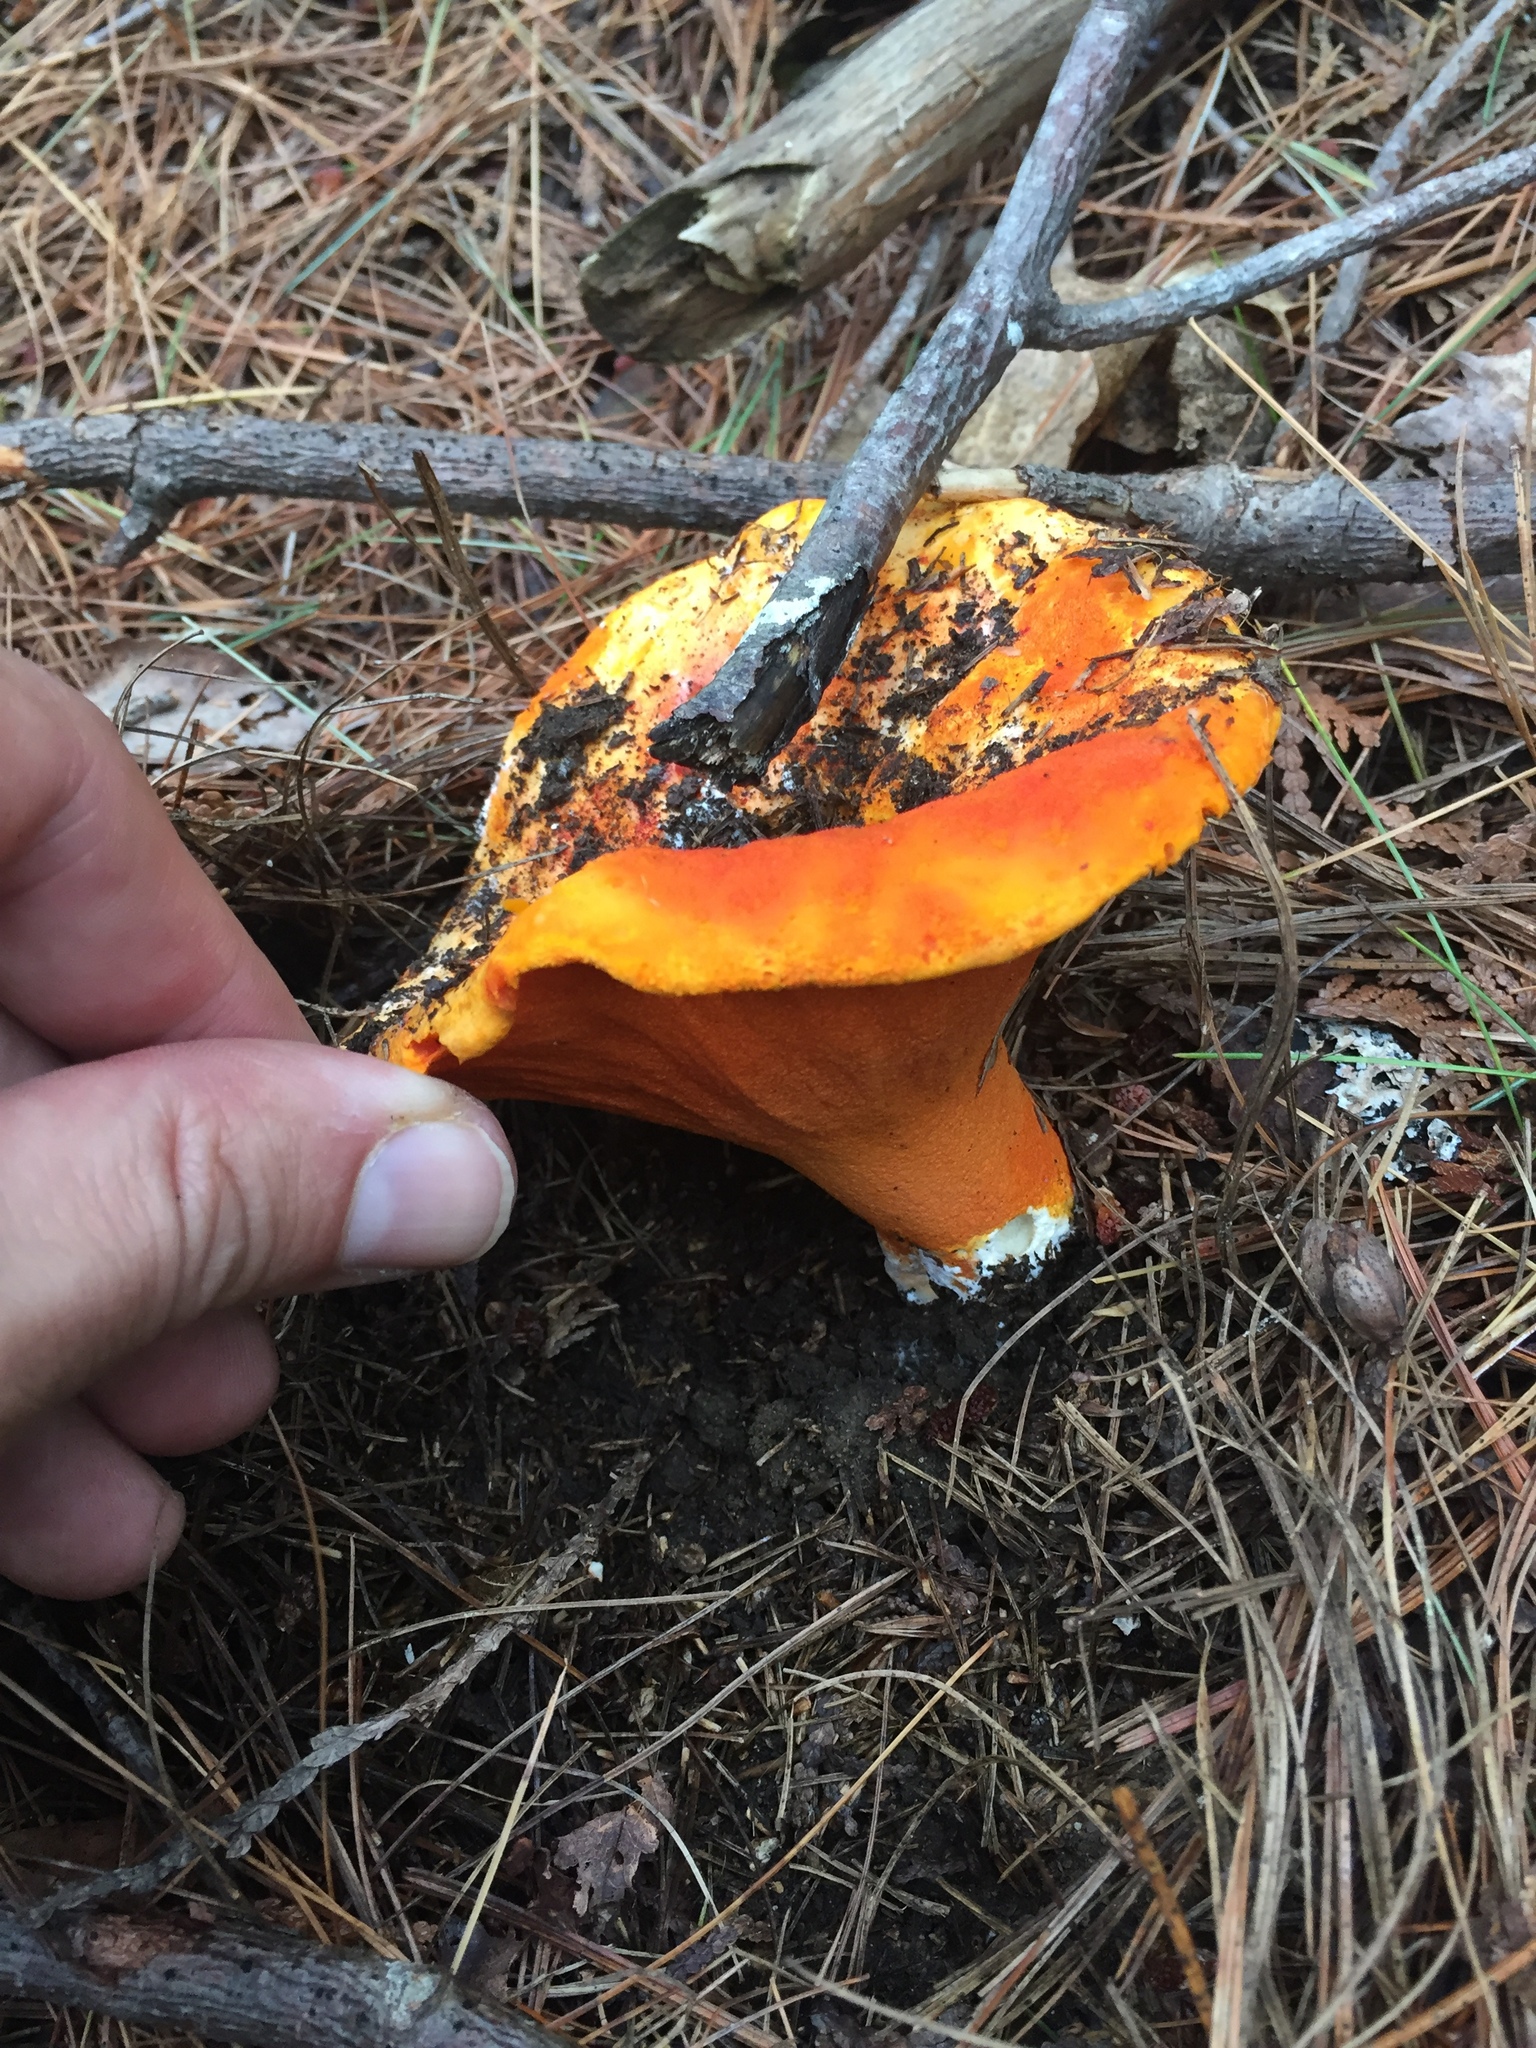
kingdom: Fungi
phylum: Ascomycota
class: Sordariomycetes
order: Hypocreales
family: Hypocreaceae
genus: Hypomyces
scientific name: Hypomyces lactifluorum
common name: Lobster mushroom
